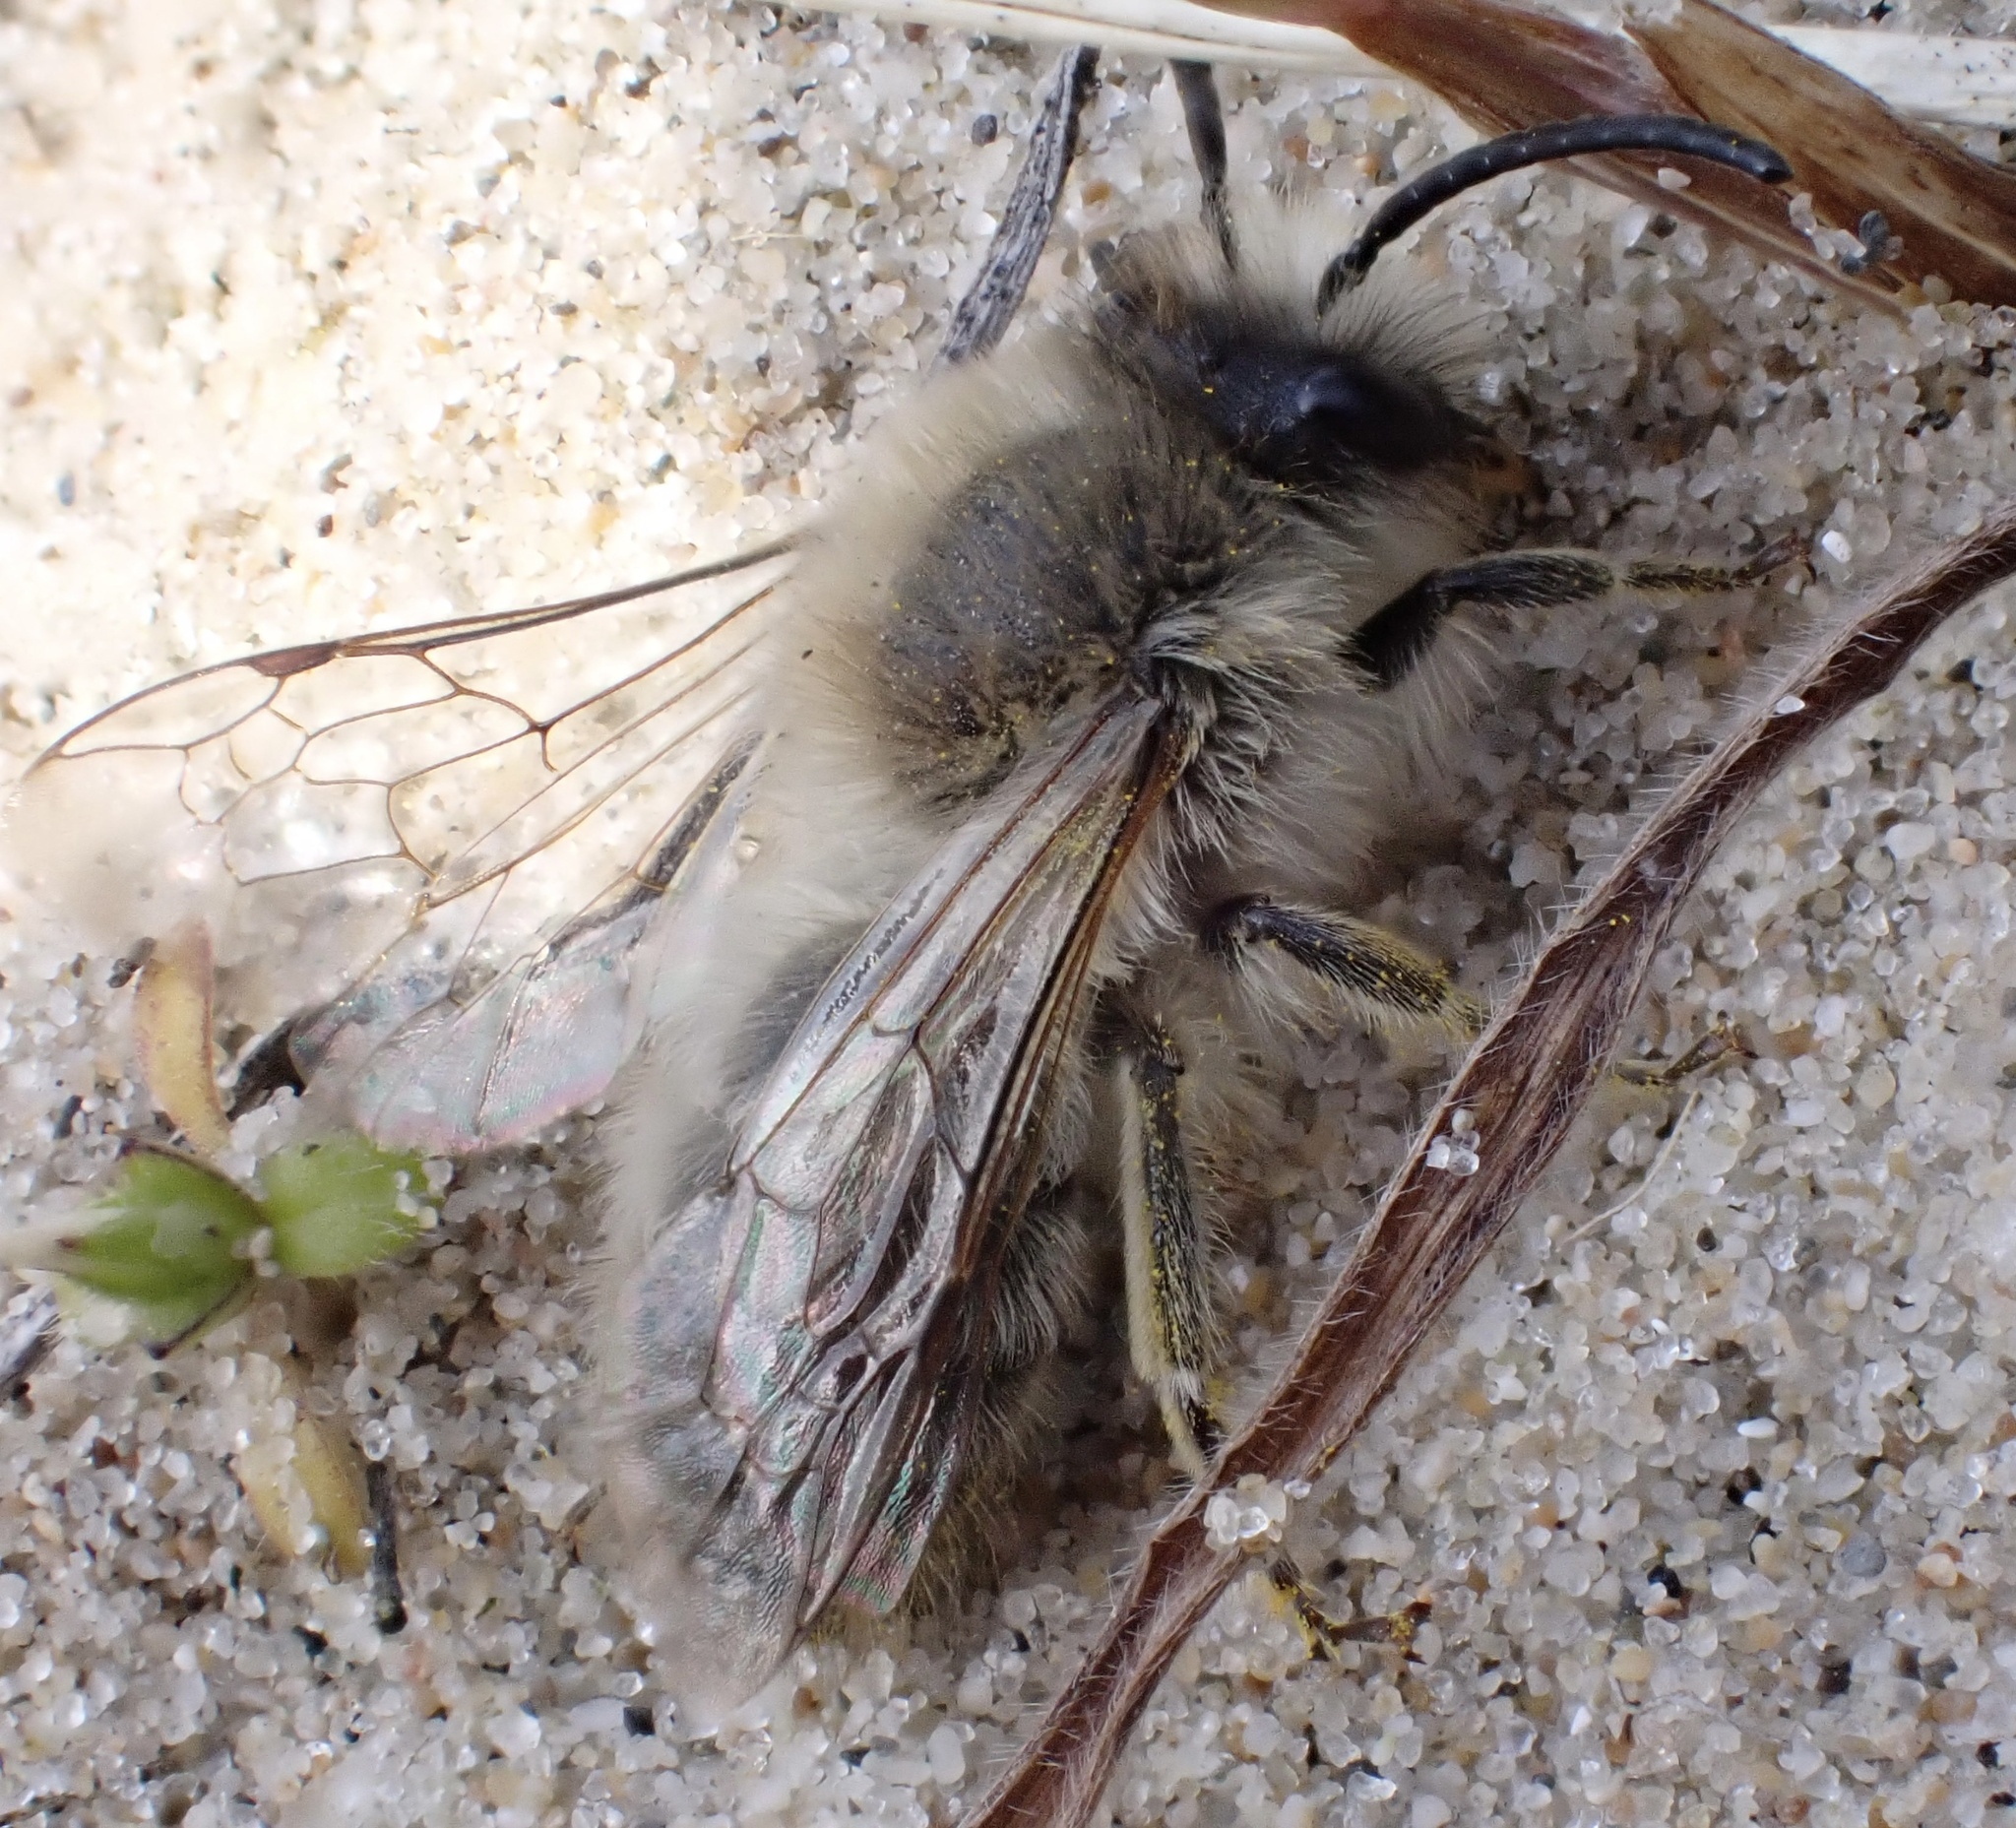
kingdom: Animalia
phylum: Arthropoda
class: Insecta
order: Hymenoptera
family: Colletidae
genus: Colletes
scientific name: Colletes cunicularius
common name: Early colletes
